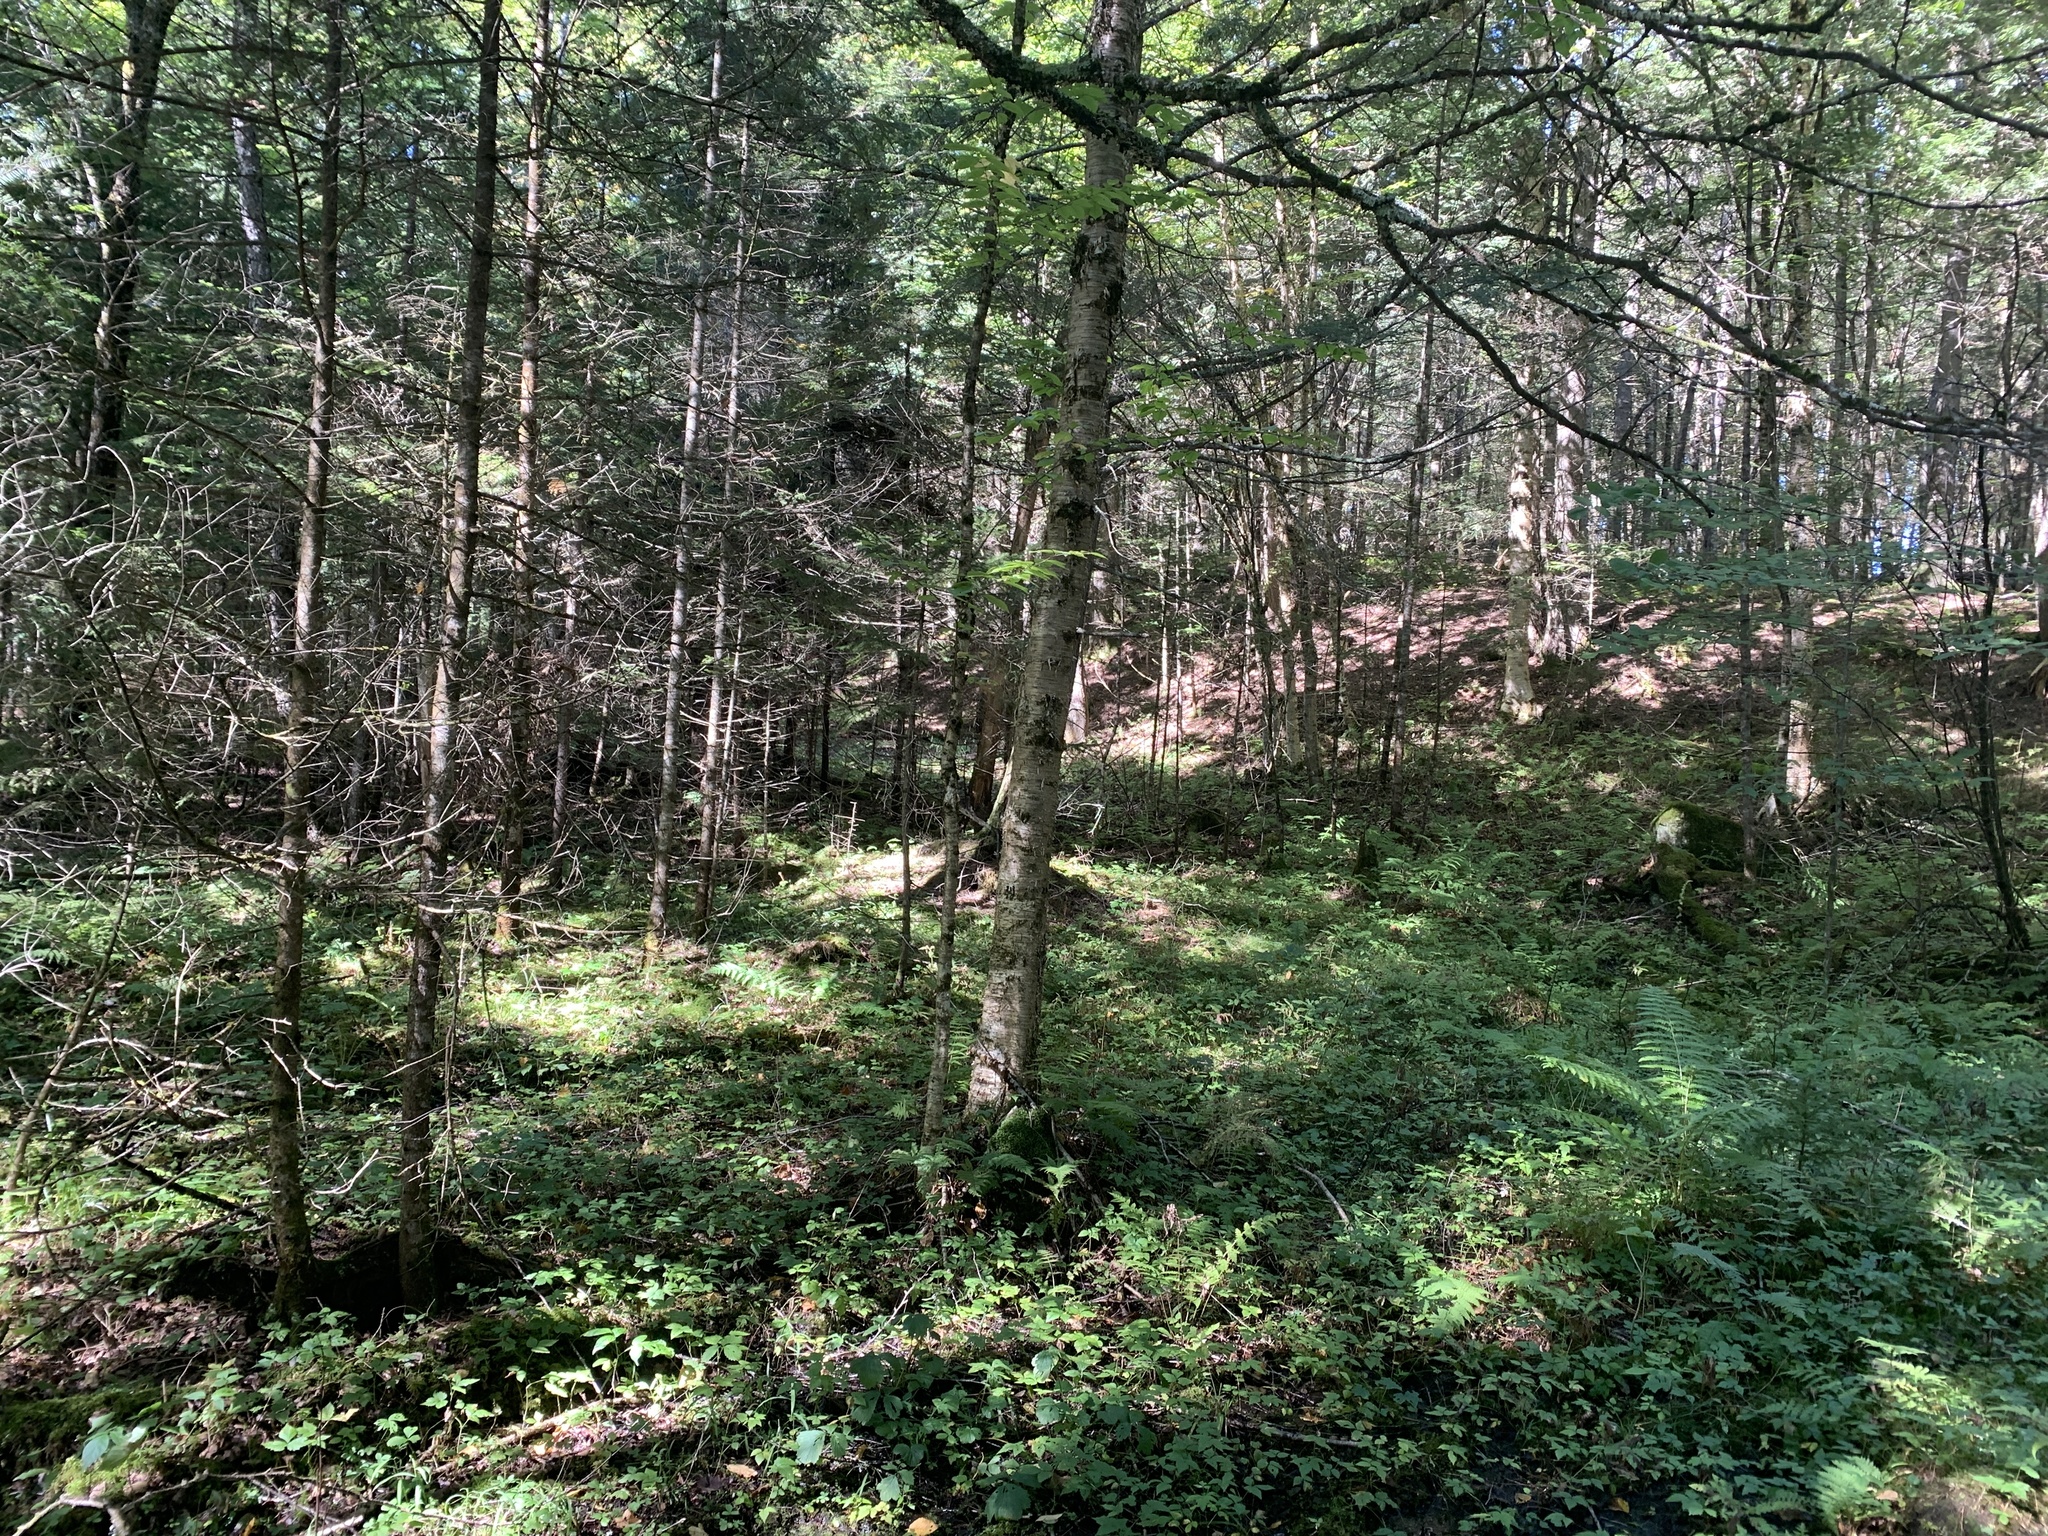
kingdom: Plantae
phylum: Tracheophyta
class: Magnoliopsida
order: Fagales
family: Betulaceae
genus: Betula
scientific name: Betula alleghaniensis
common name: Yellow birch
